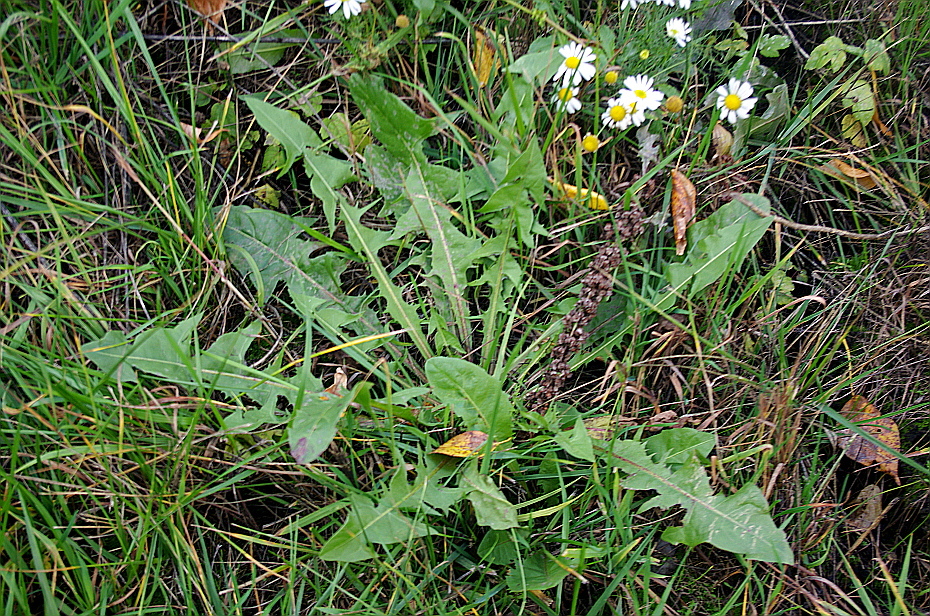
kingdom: Plantae
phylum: Tracheophyta
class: Magnoliopsida
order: Asterales
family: Asteraceae
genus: Taraxacum
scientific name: Taraxacum officinale
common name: Common dandelion
